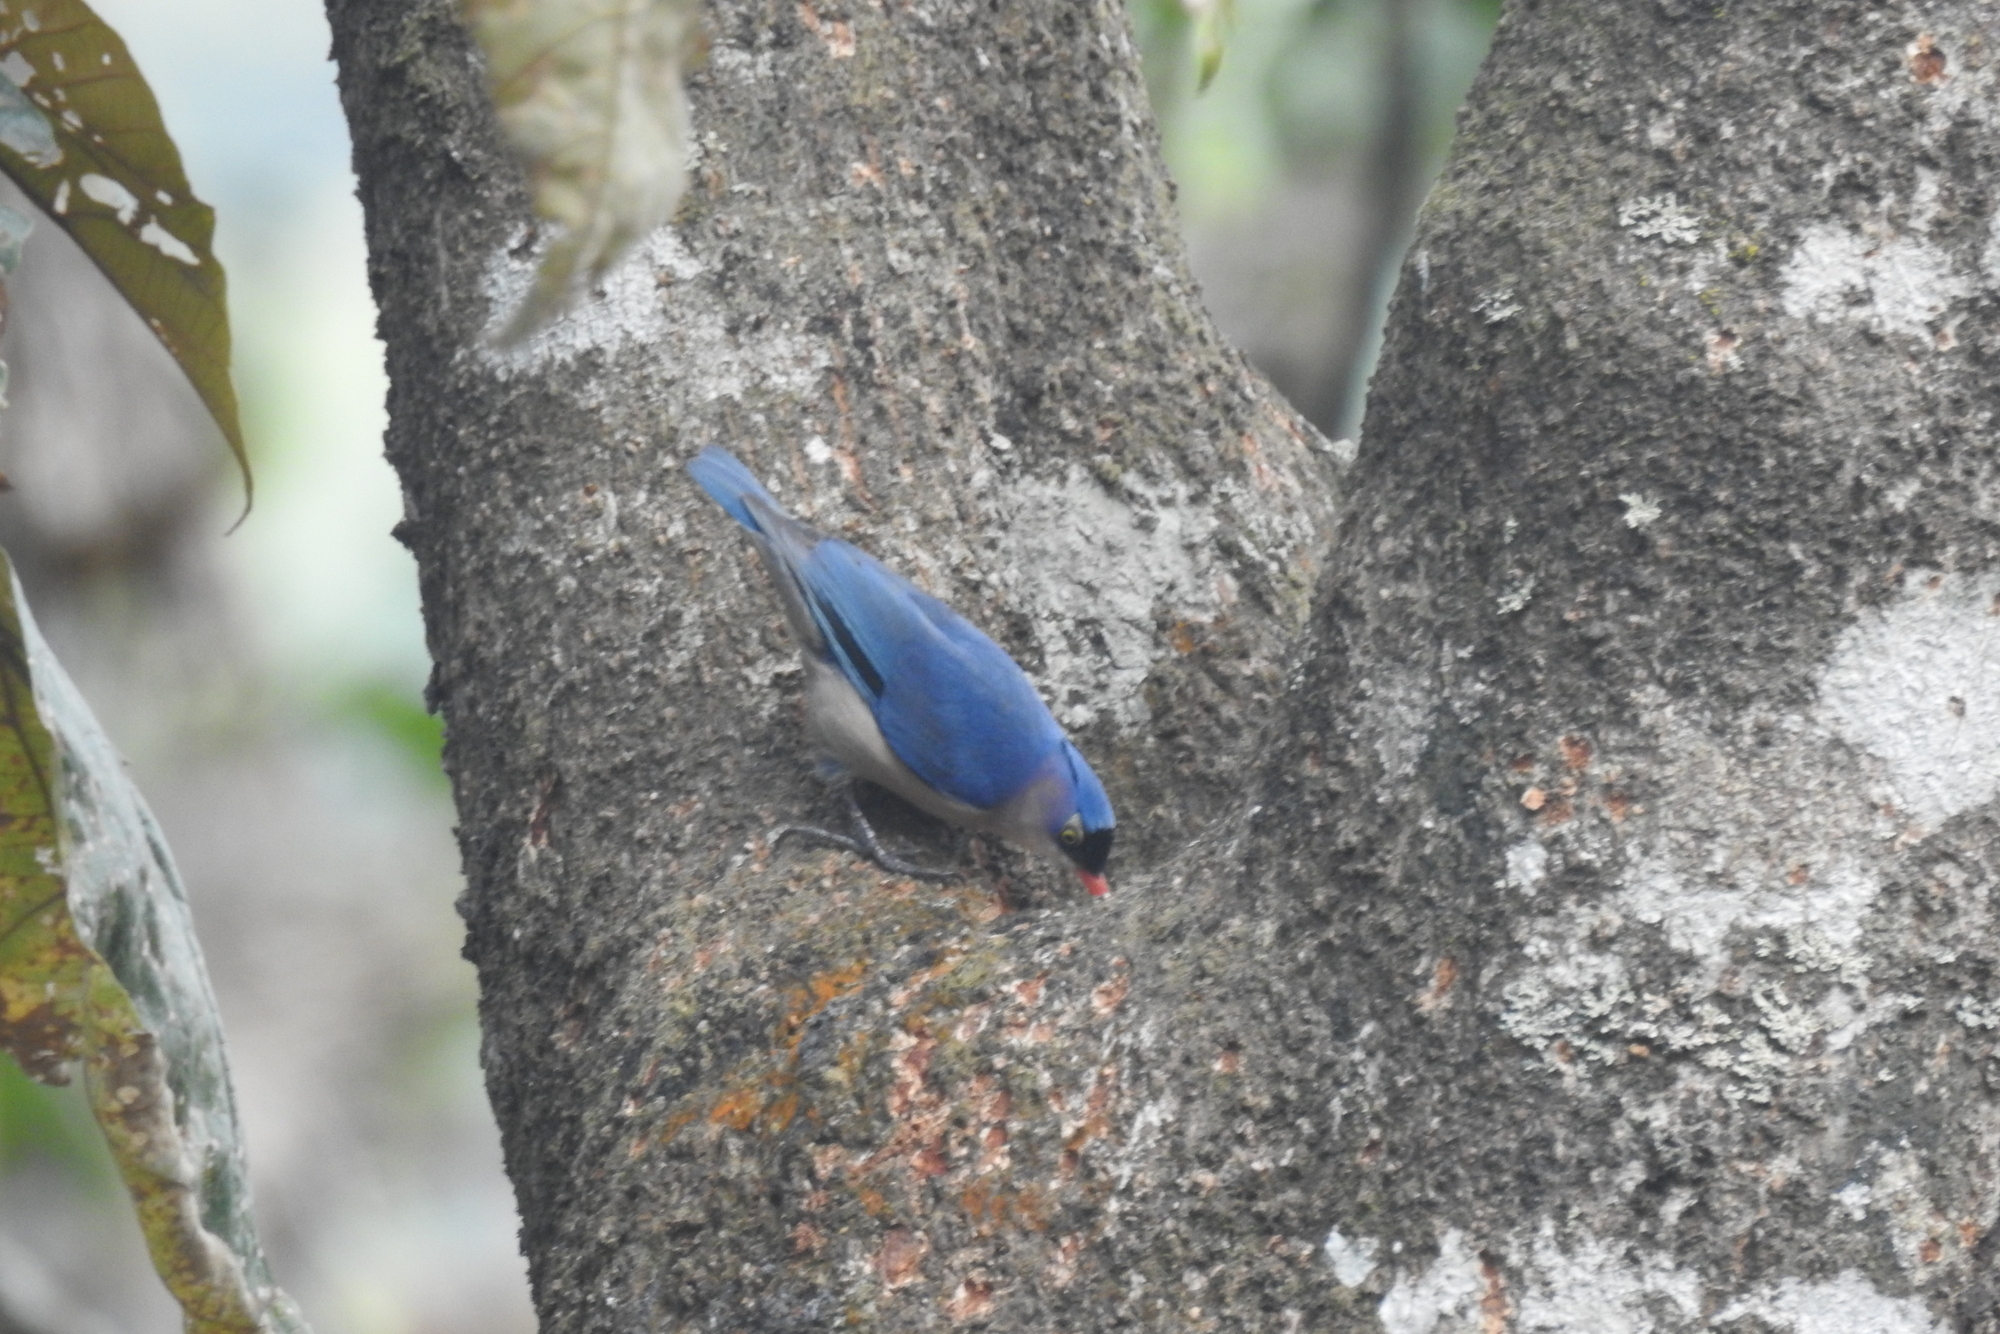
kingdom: Animalia
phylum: Chordata
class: Aves
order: Passeriformes
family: Sittidae
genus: Sitta
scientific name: Sitta frontalis
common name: Velvet-fronted nuthatch
